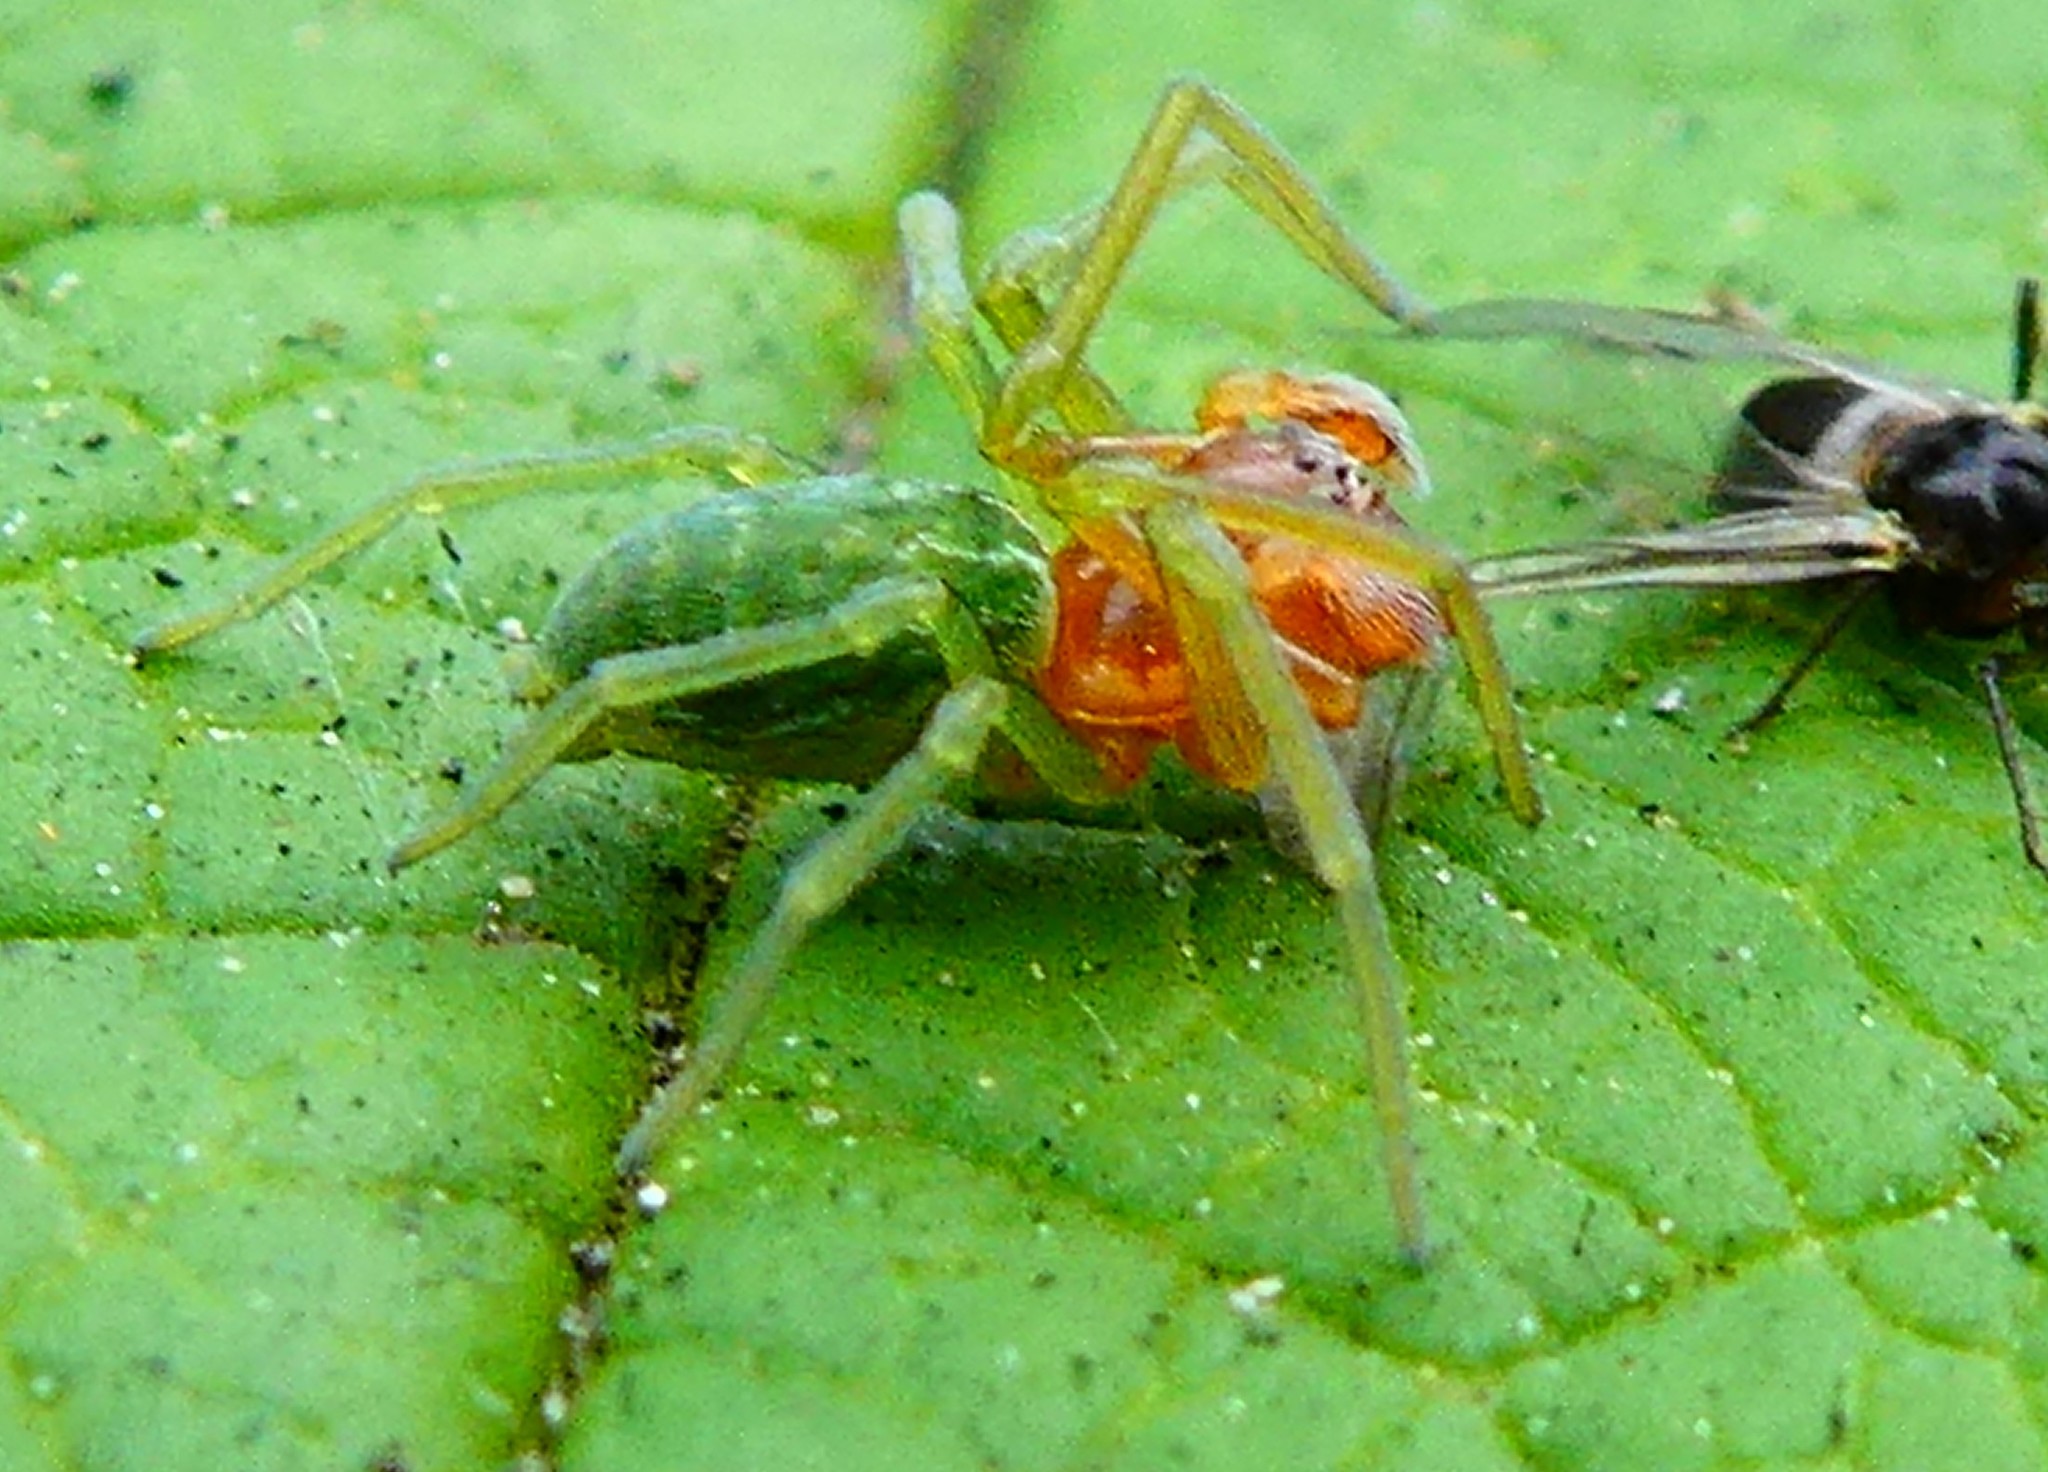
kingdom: Animalia
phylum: Arthropoda
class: Arachnida
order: Araneae
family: Dictynidae
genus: Nigma
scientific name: Nigma walckenaeri
